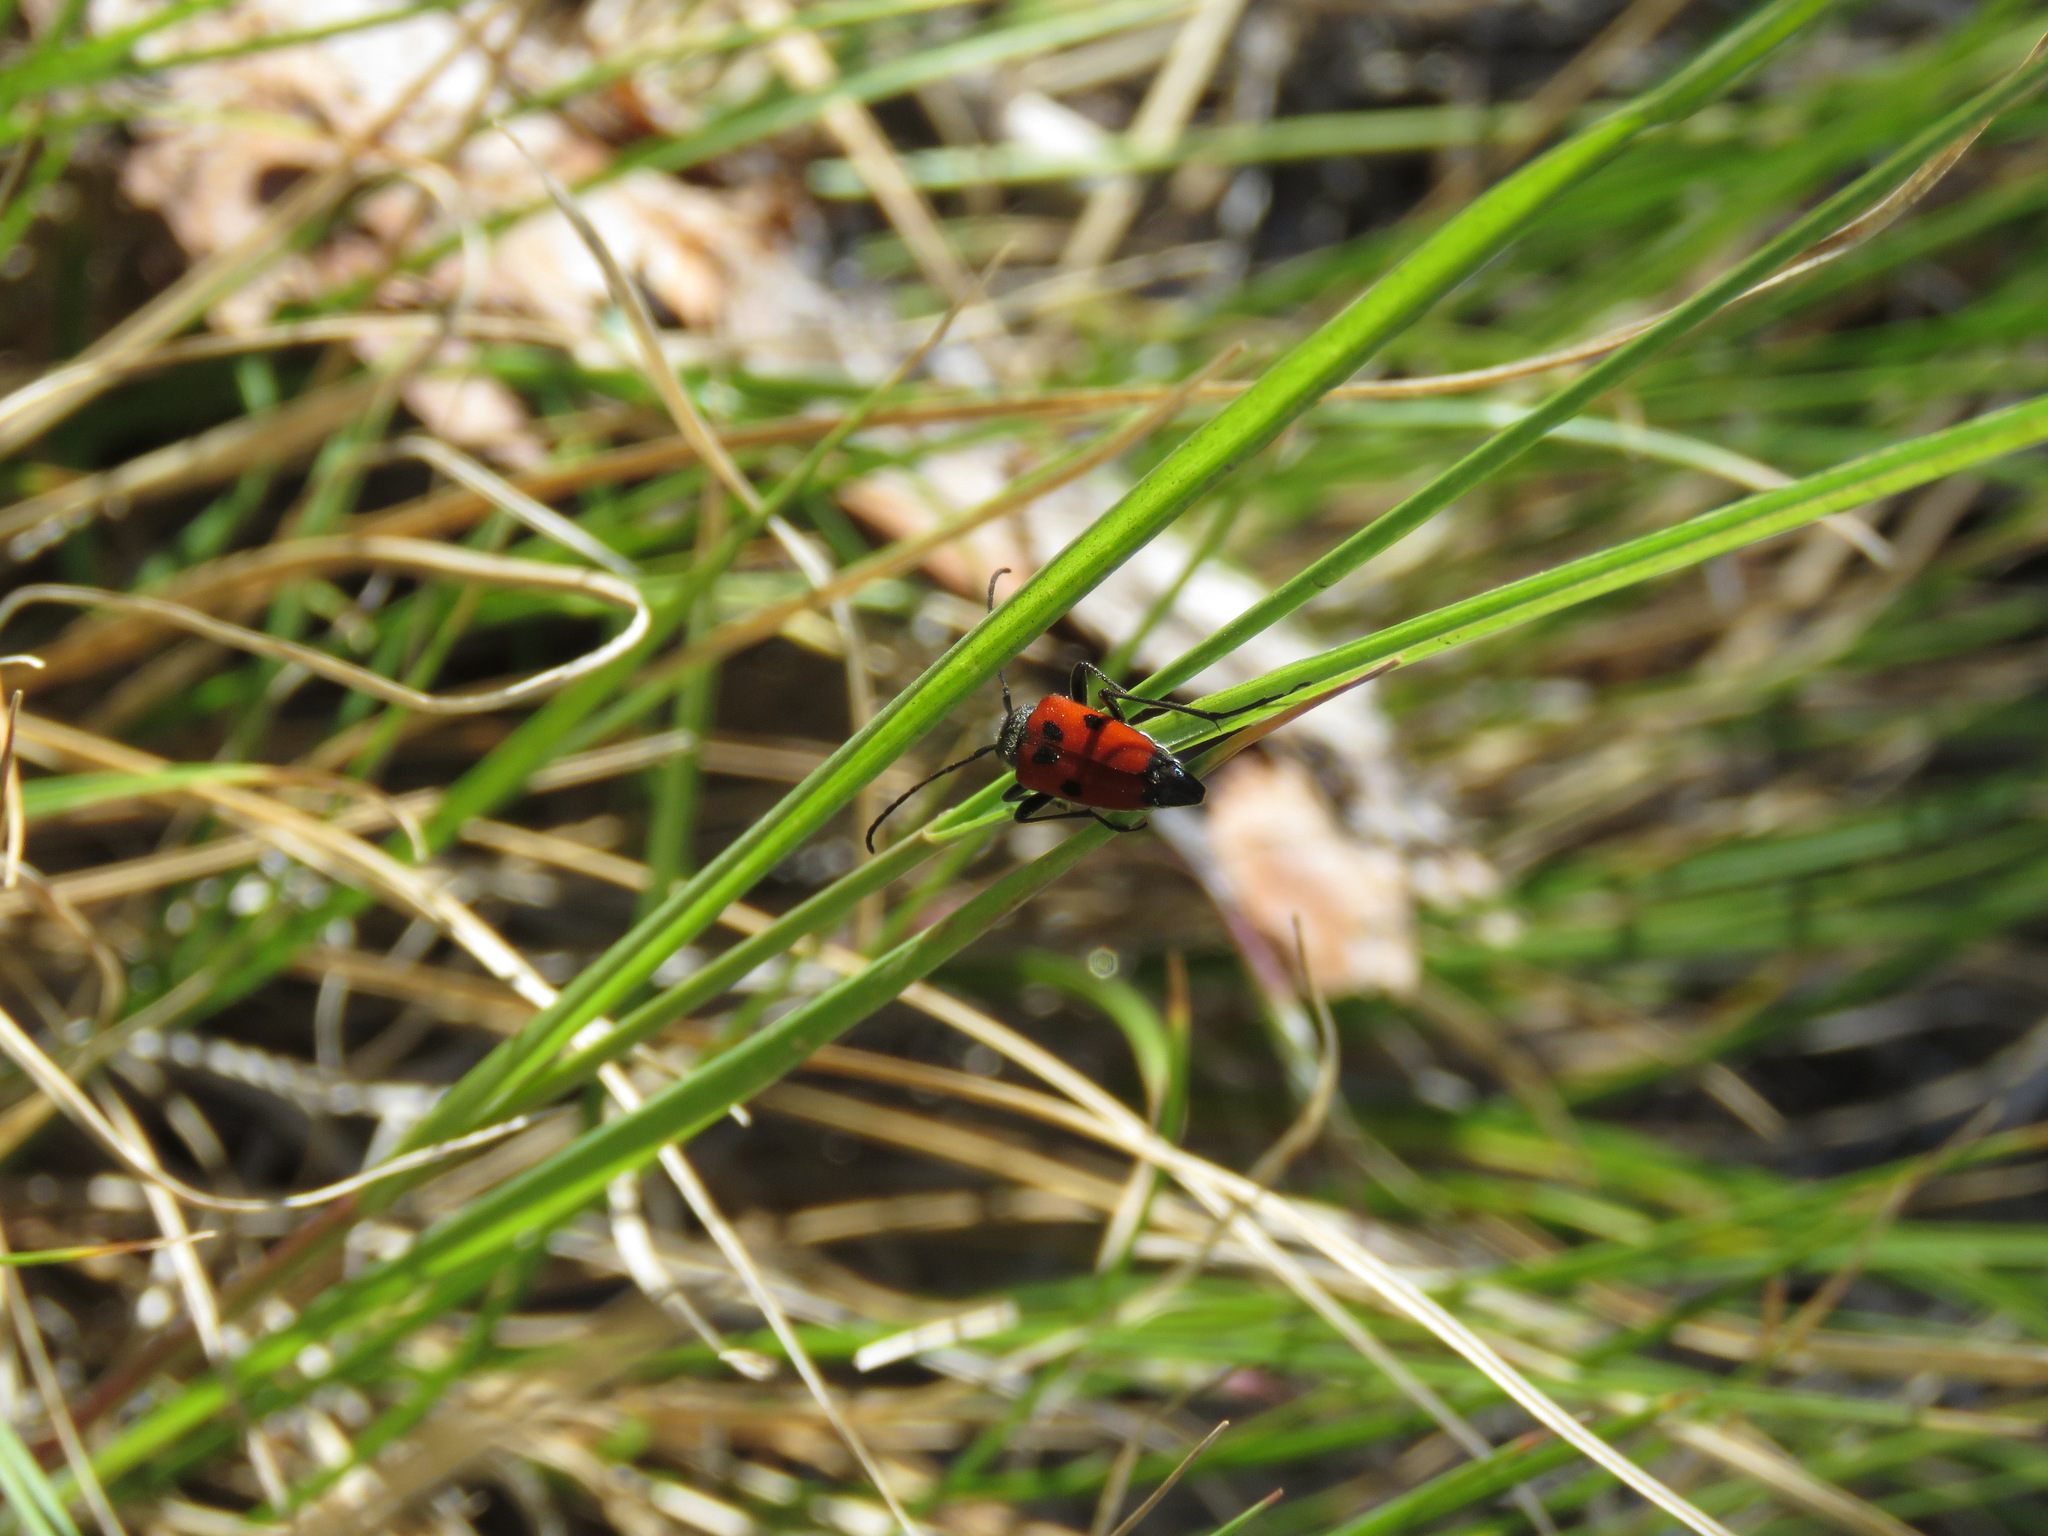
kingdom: Animalia
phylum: Arthropoda
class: Insecta
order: Coleoptera
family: Cerambycidae
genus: Anastrangalia
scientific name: Anastrangalia laetifica
